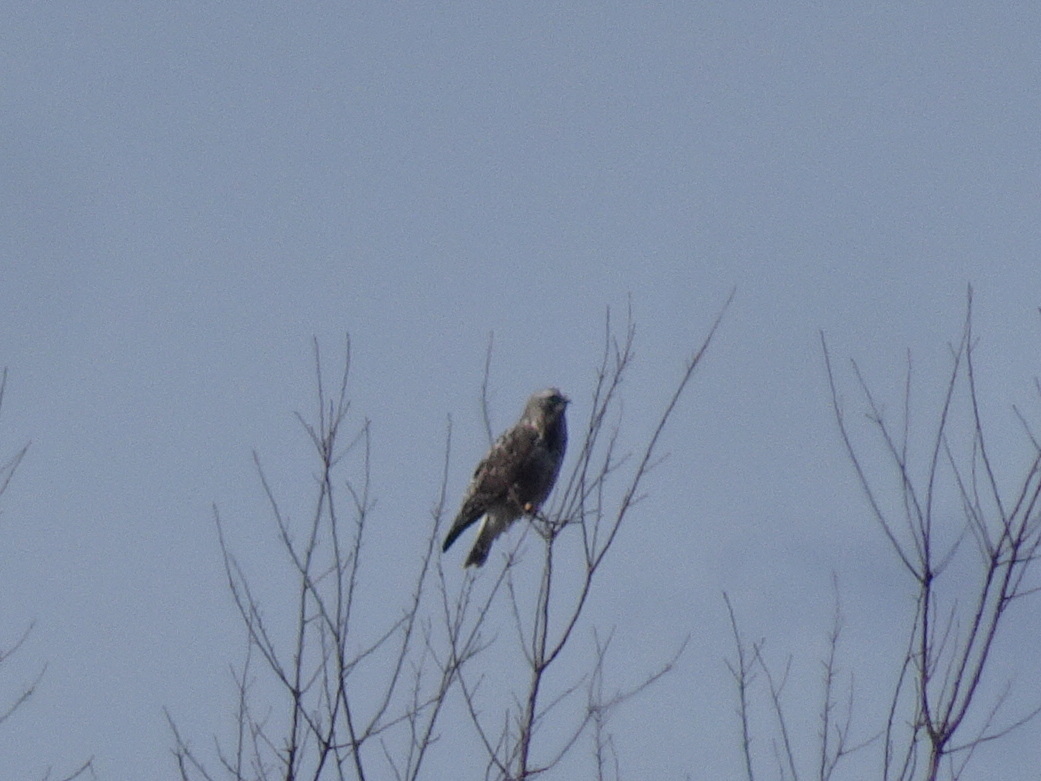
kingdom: Animalia
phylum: Chordata
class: Aves
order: Accipitriformes
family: Accipitridae
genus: Buteo
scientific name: Buteo lagopus
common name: Rough-legged buzzard
